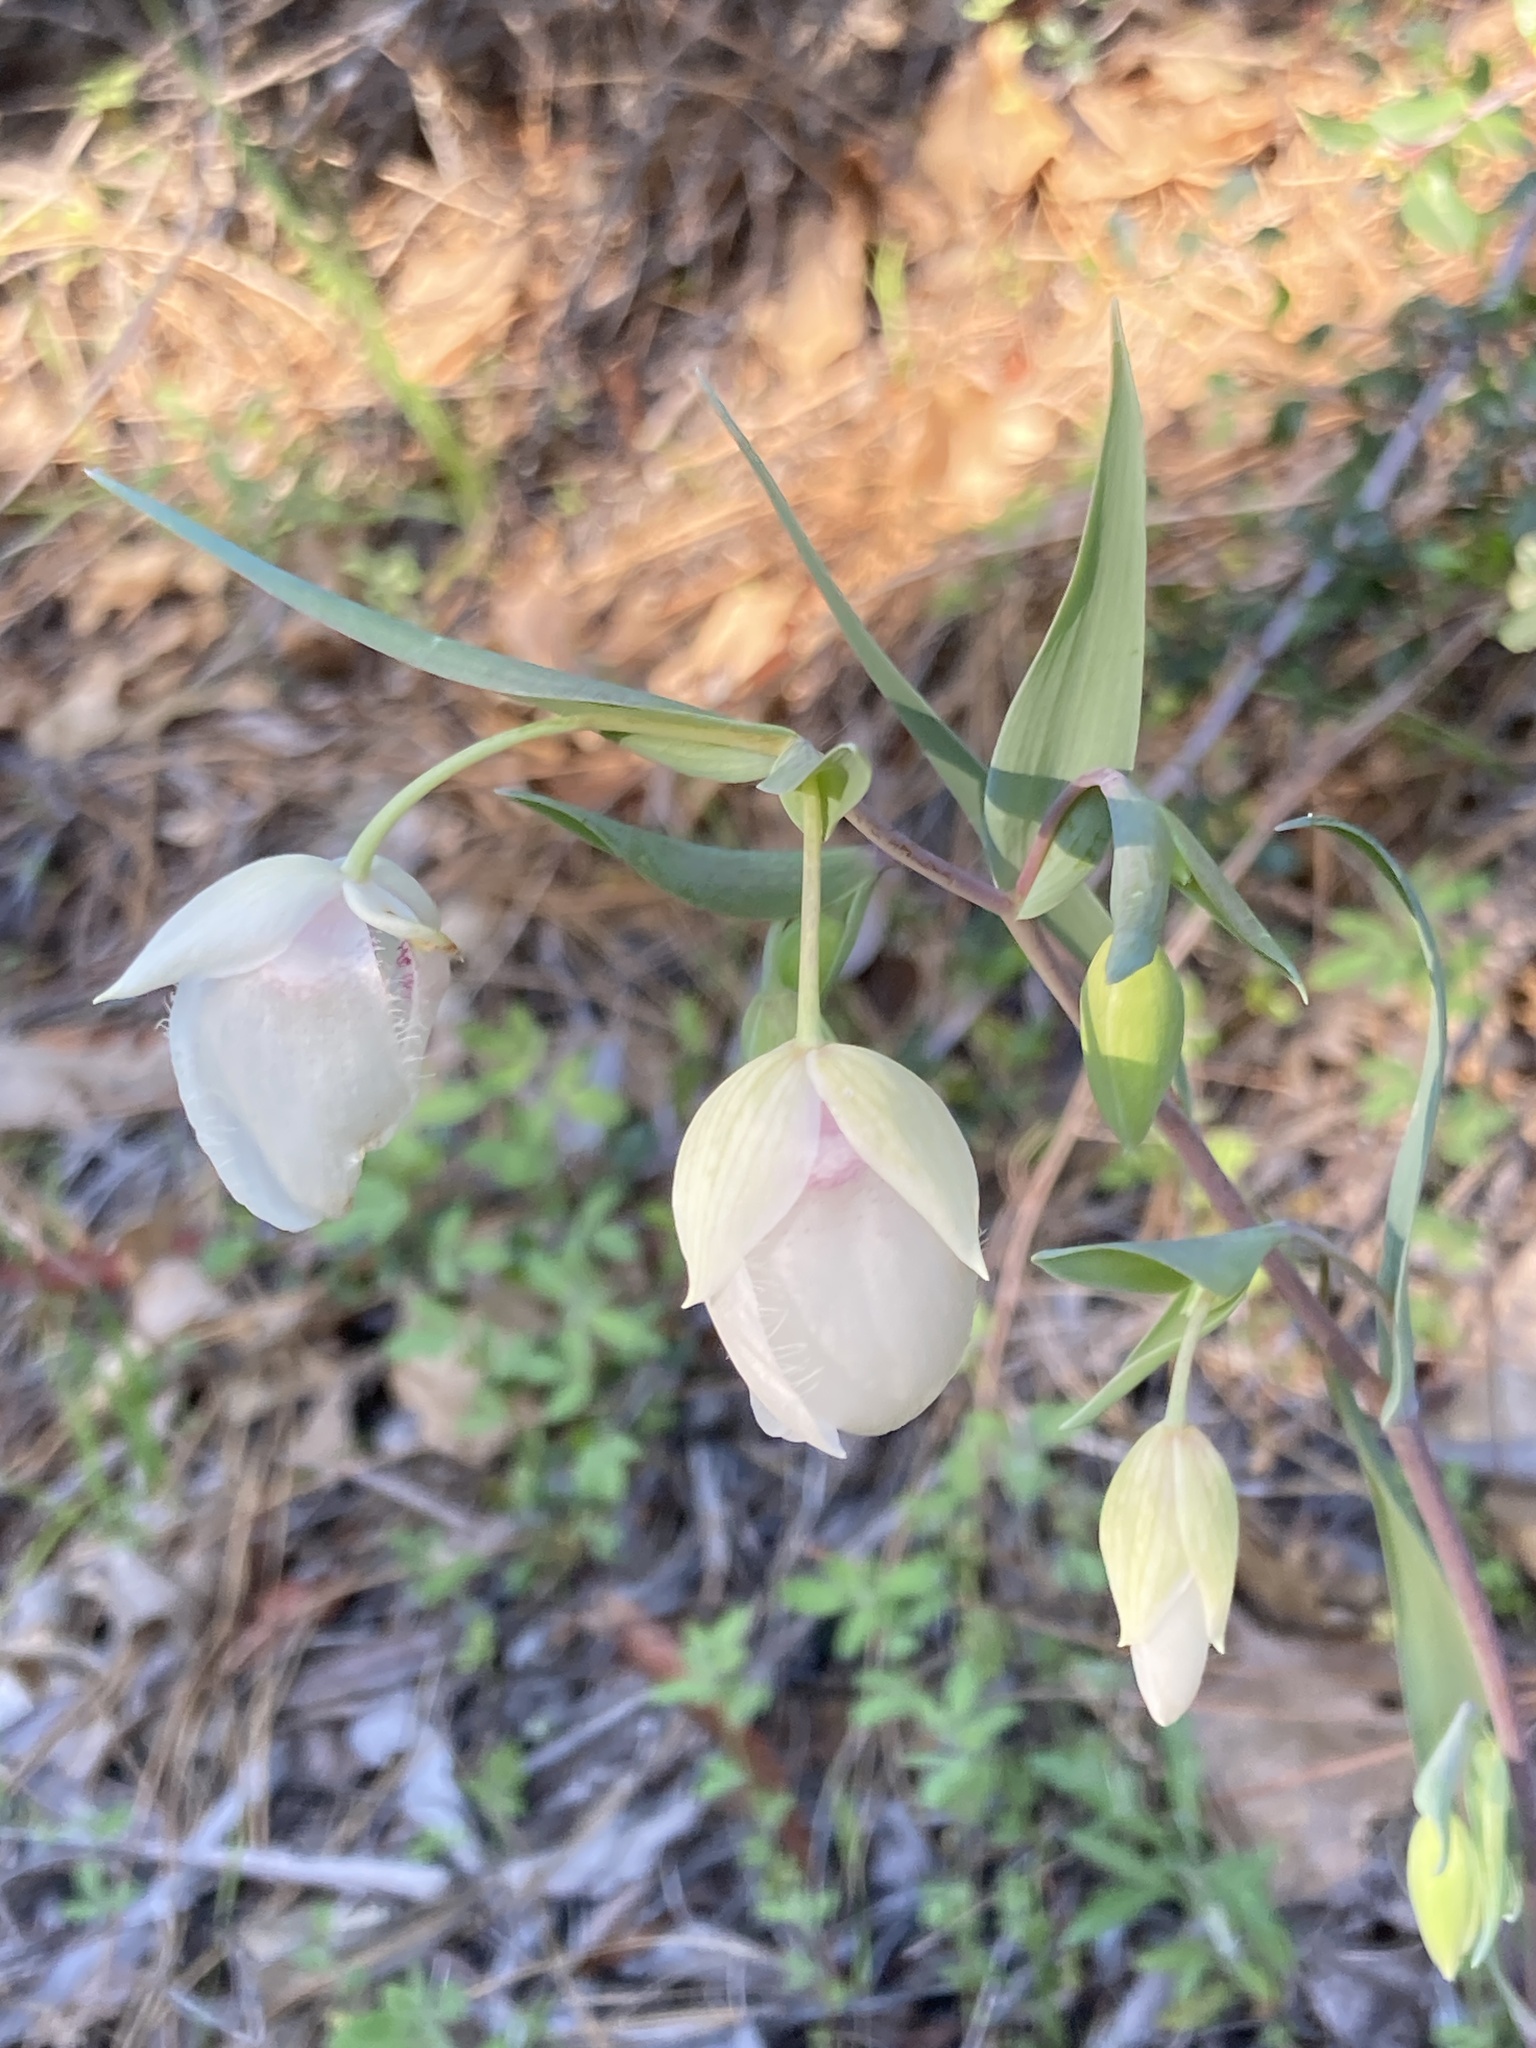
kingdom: Plantae
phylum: Tracheophyta
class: Liliopsida
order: Liliales
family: Liliaceae
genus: Calochortus
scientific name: Calochortus albus
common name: Fairy-lantern
